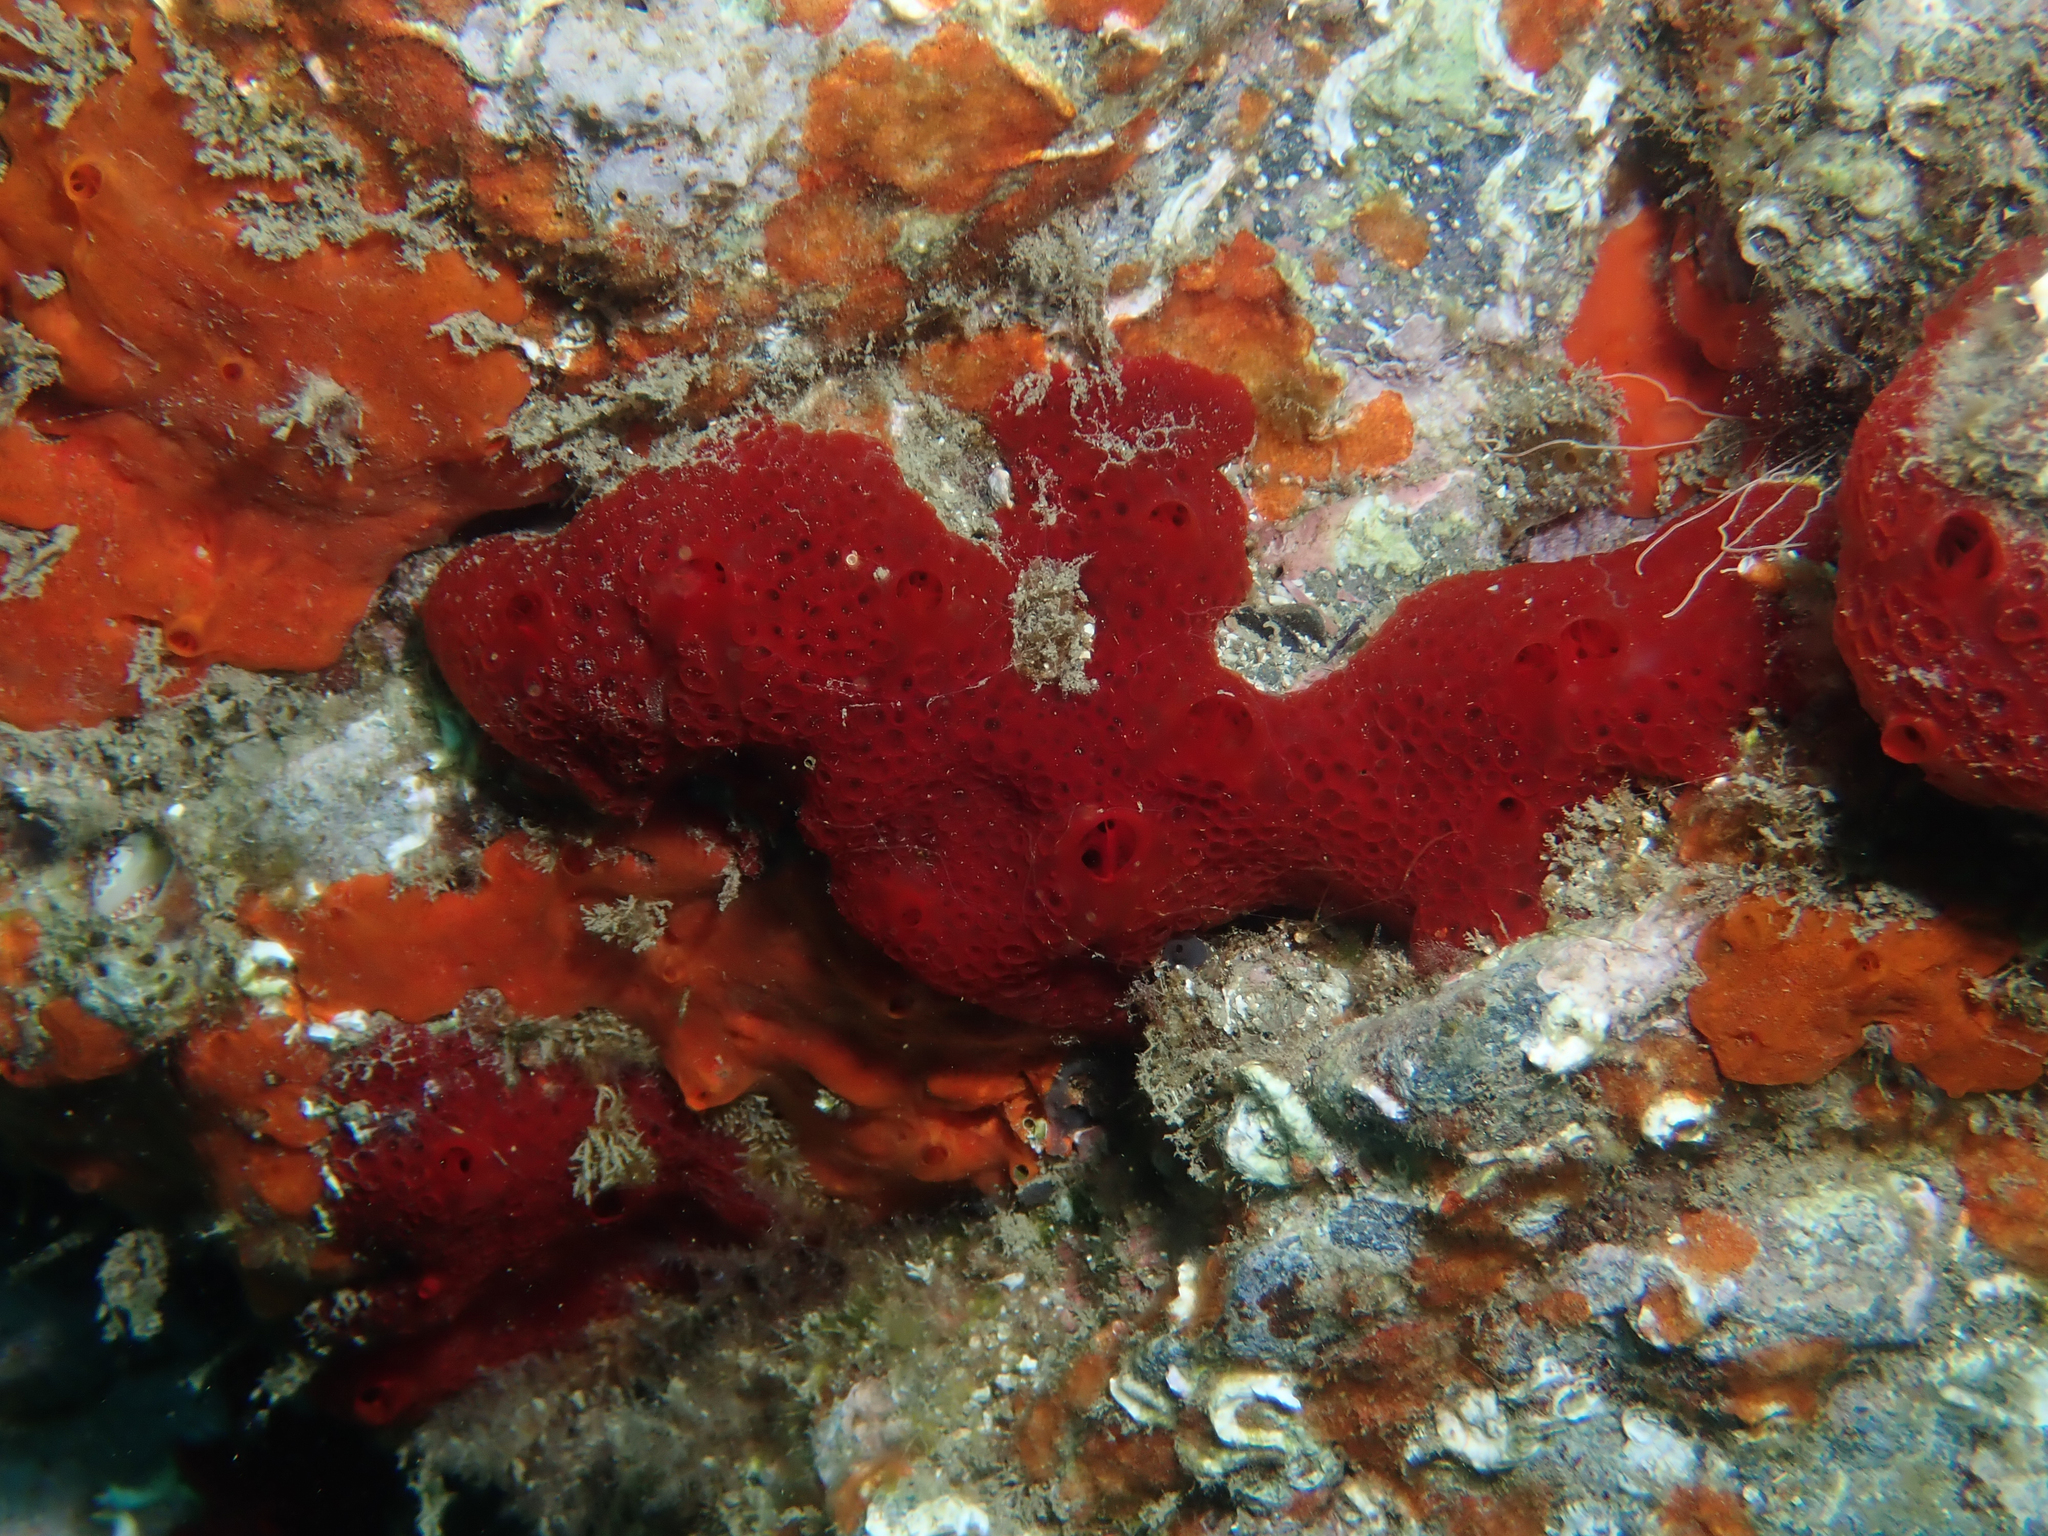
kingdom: Animalia
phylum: Porifera
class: Demospongiae
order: Poecilosclerida
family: Hymedesmiidae
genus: Phorbas
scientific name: Phorbas topsenti
